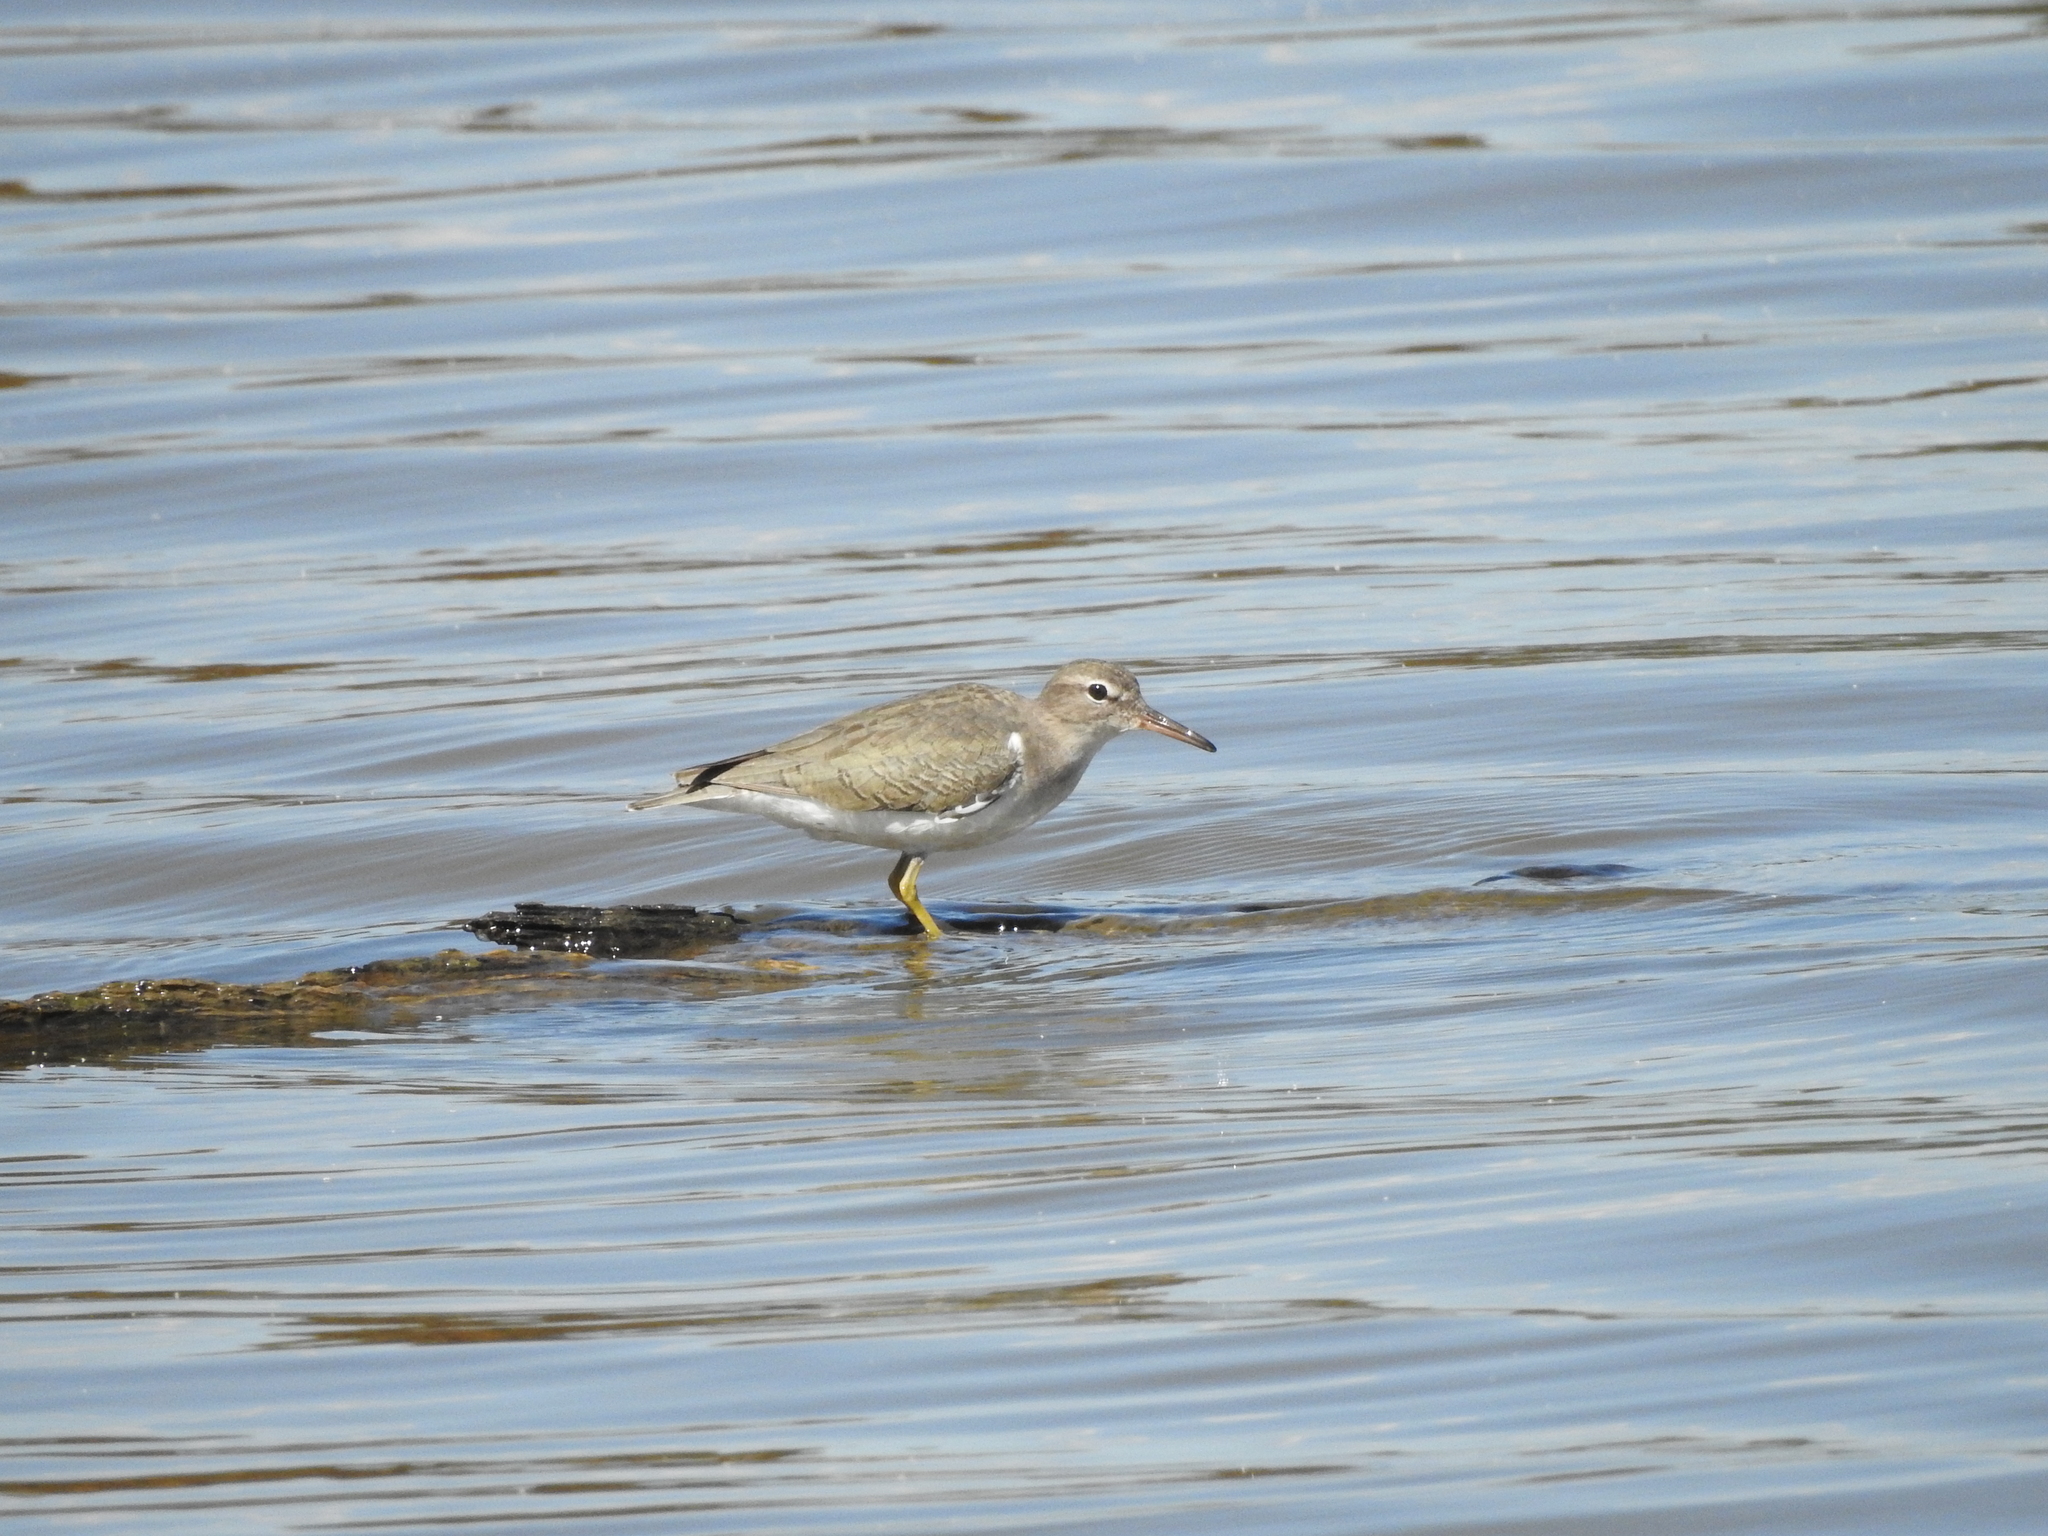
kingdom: Animalia
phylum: Chordata
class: Aves
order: Charadriiformes
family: Scolopacidae
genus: Actitis
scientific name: Actitis macularius
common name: Spotted sandpiper
